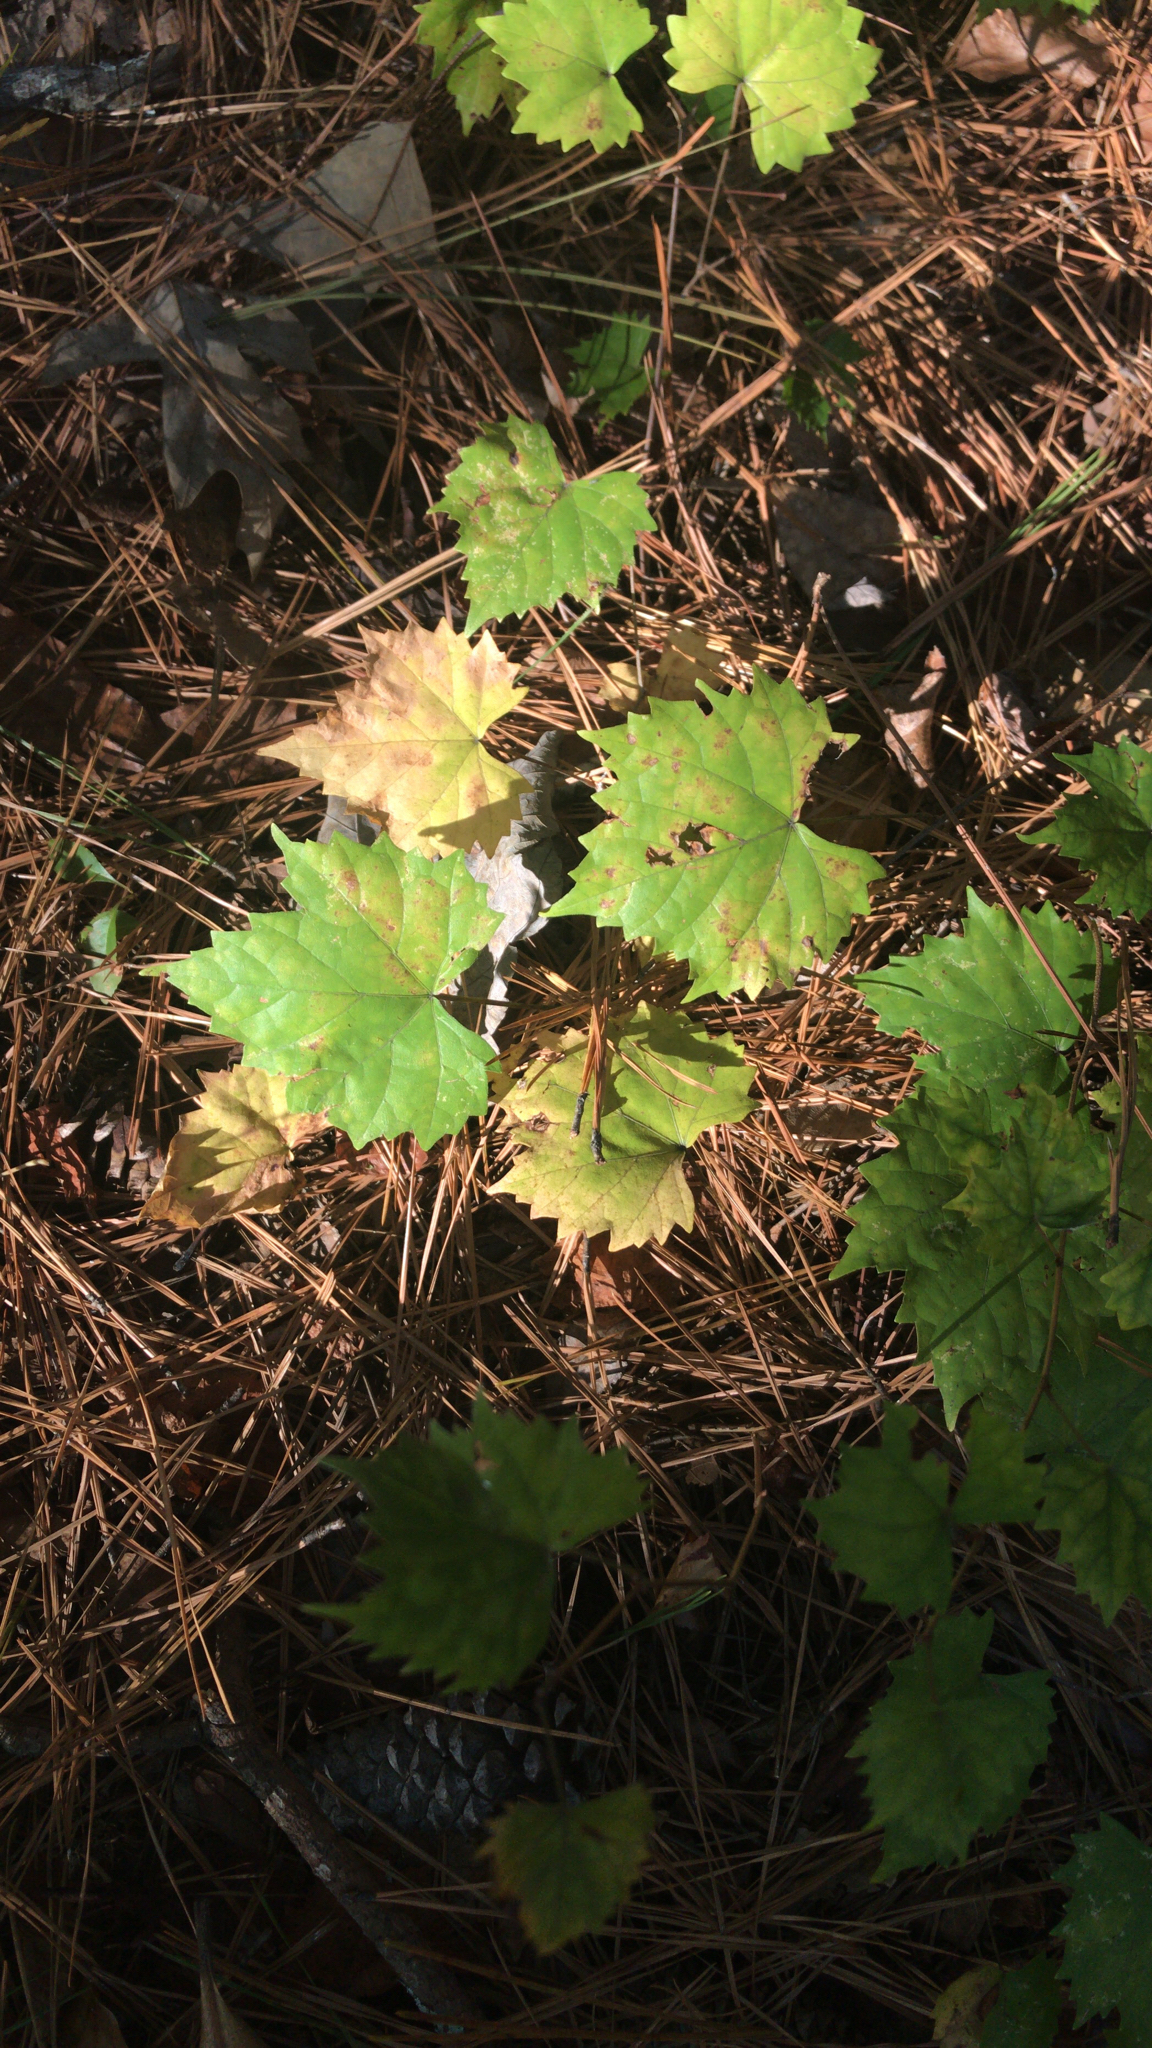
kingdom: Plantae
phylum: Tracheophyta
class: Magnoliopsida
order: Vitales
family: Vitaceae
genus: Vitis
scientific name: Vitis rotundifolia
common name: Muscadine grape
